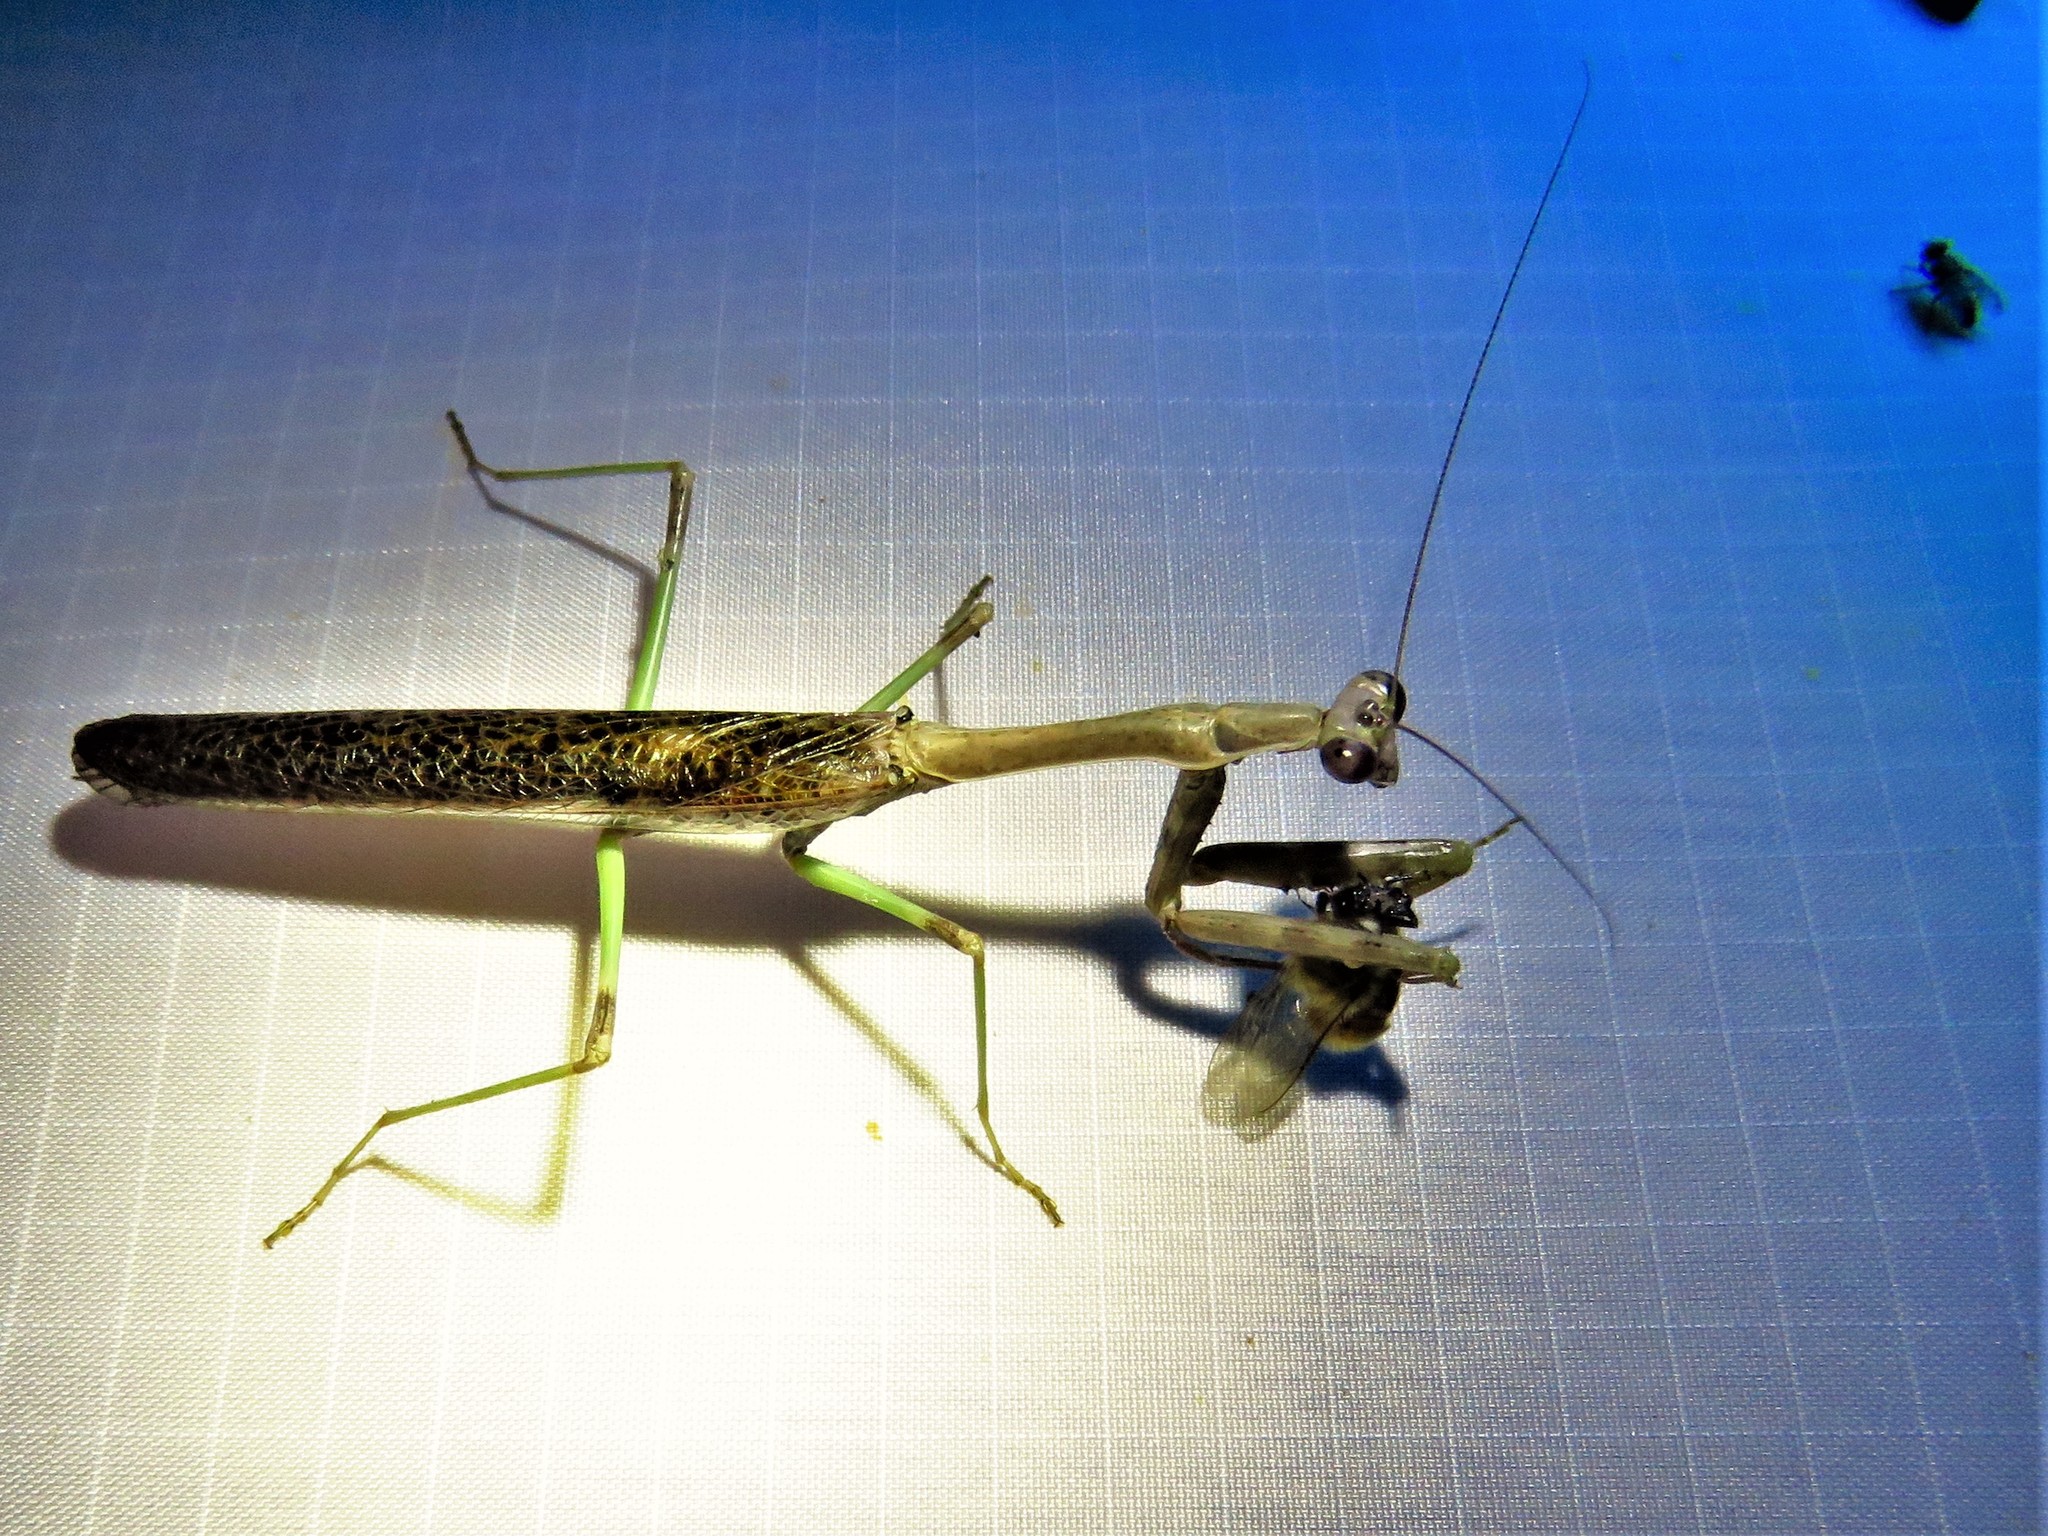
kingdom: Animalia
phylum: Arthropoda
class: Insecta
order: Mantodea
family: Mantidae
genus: Stagmomantis
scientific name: Stagmomantis carolina
